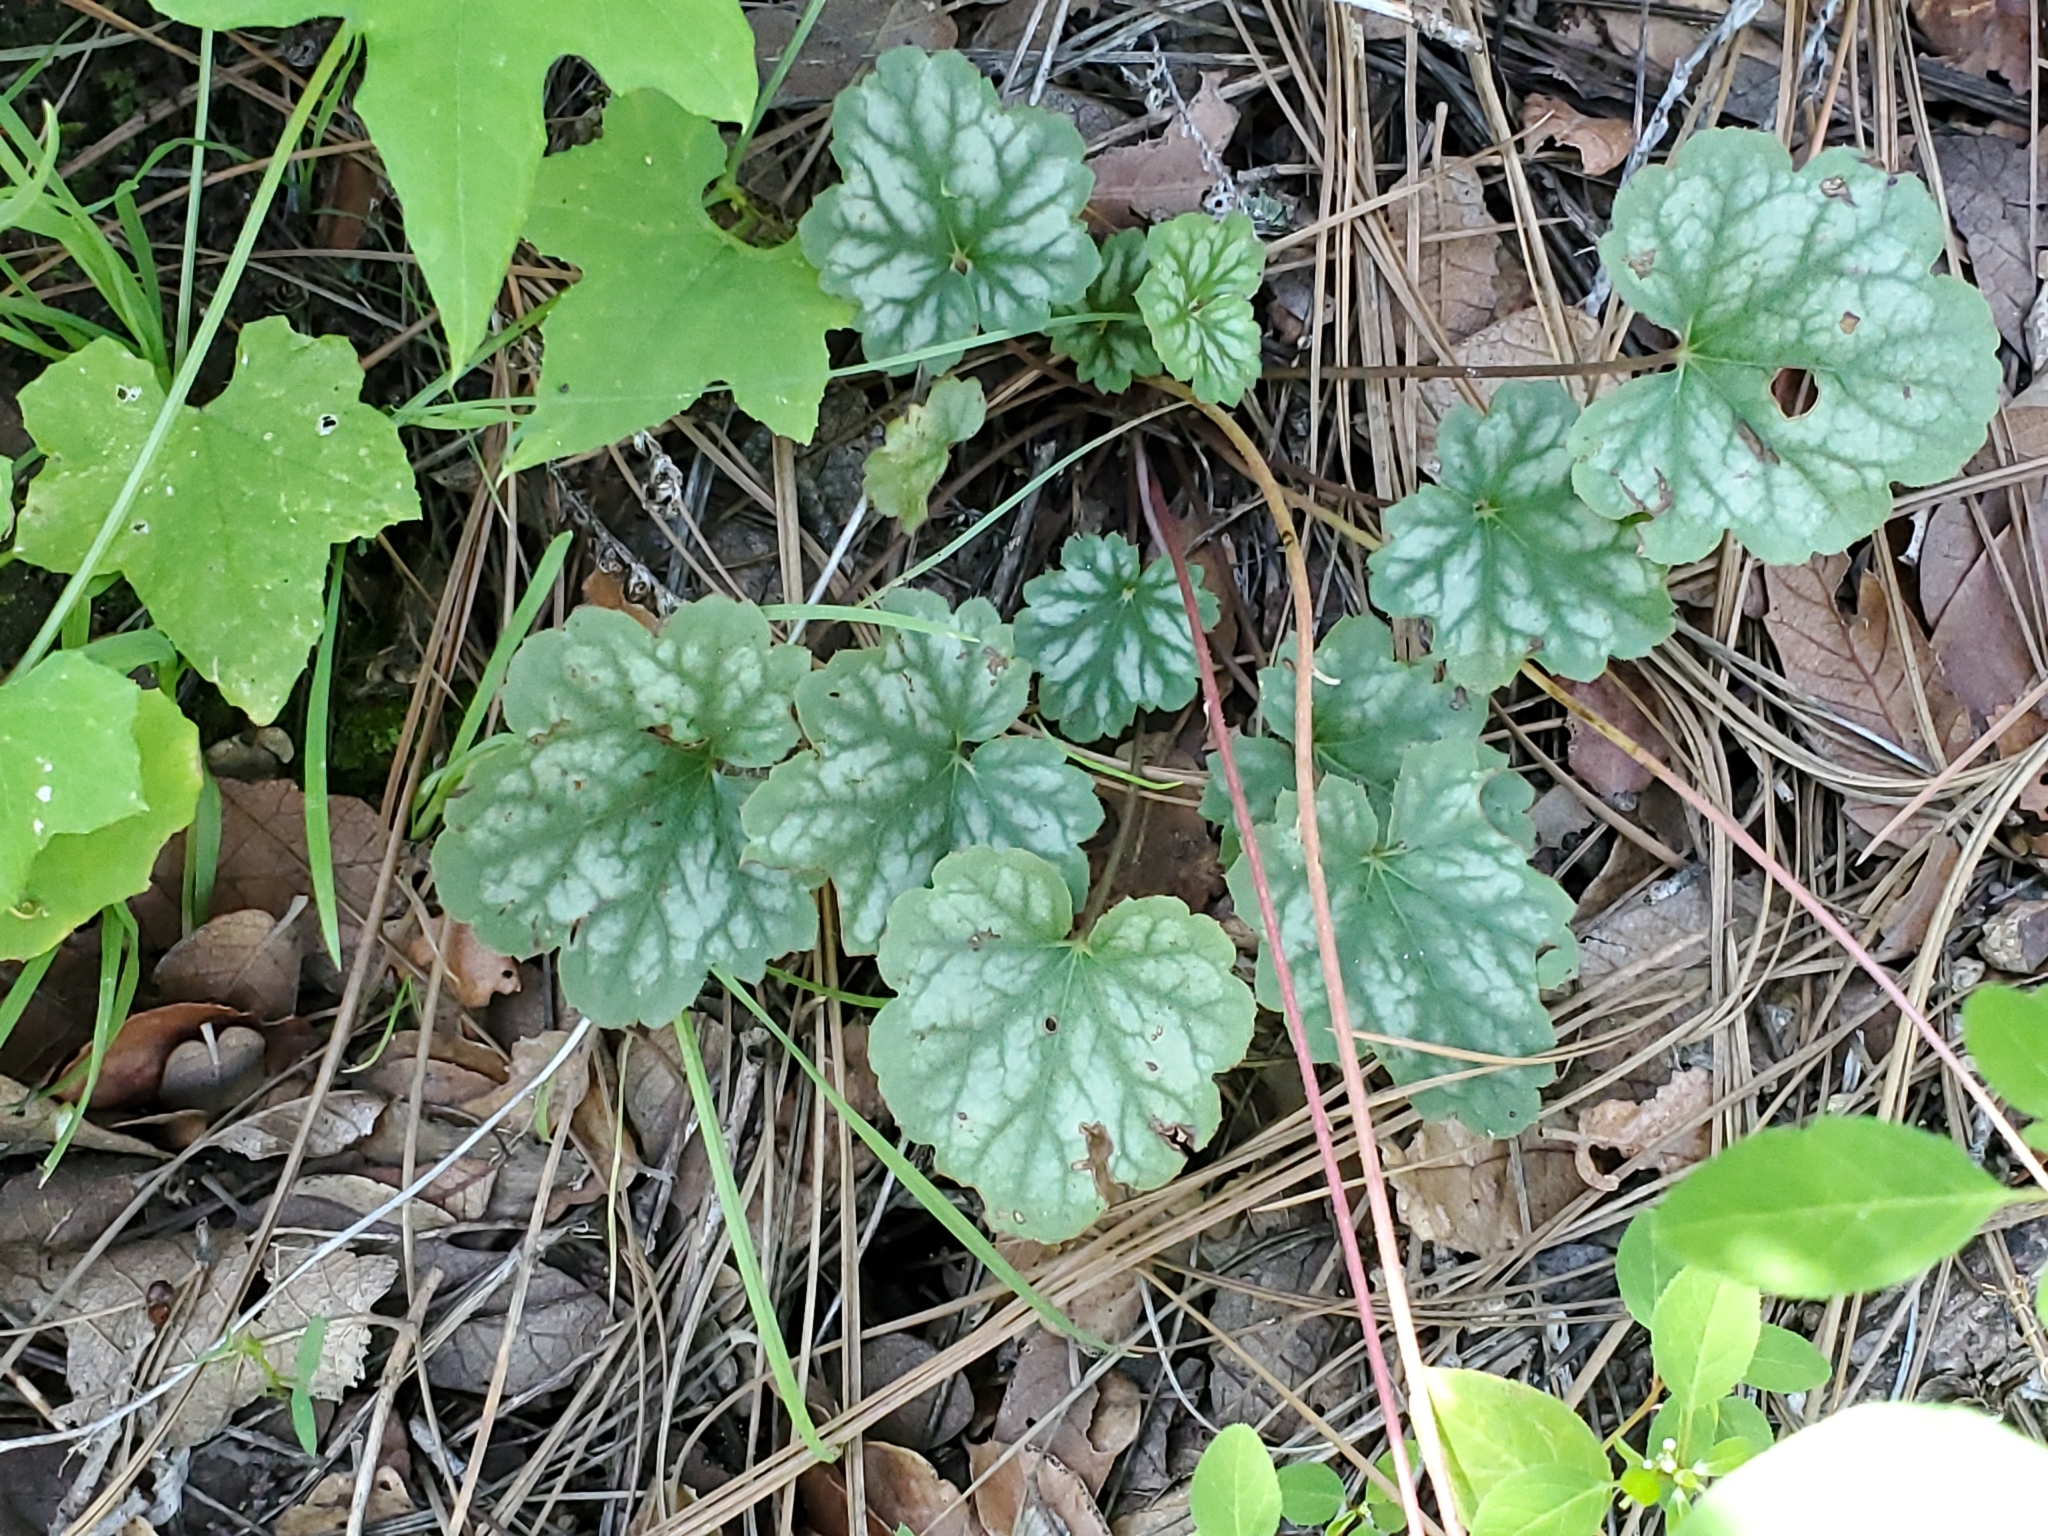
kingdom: Plantae
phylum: Tracheophyta
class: Magnoliopsida
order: Saxifragales
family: Saxifragaceae
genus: Heuchera
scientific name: Heuchera soltisii
